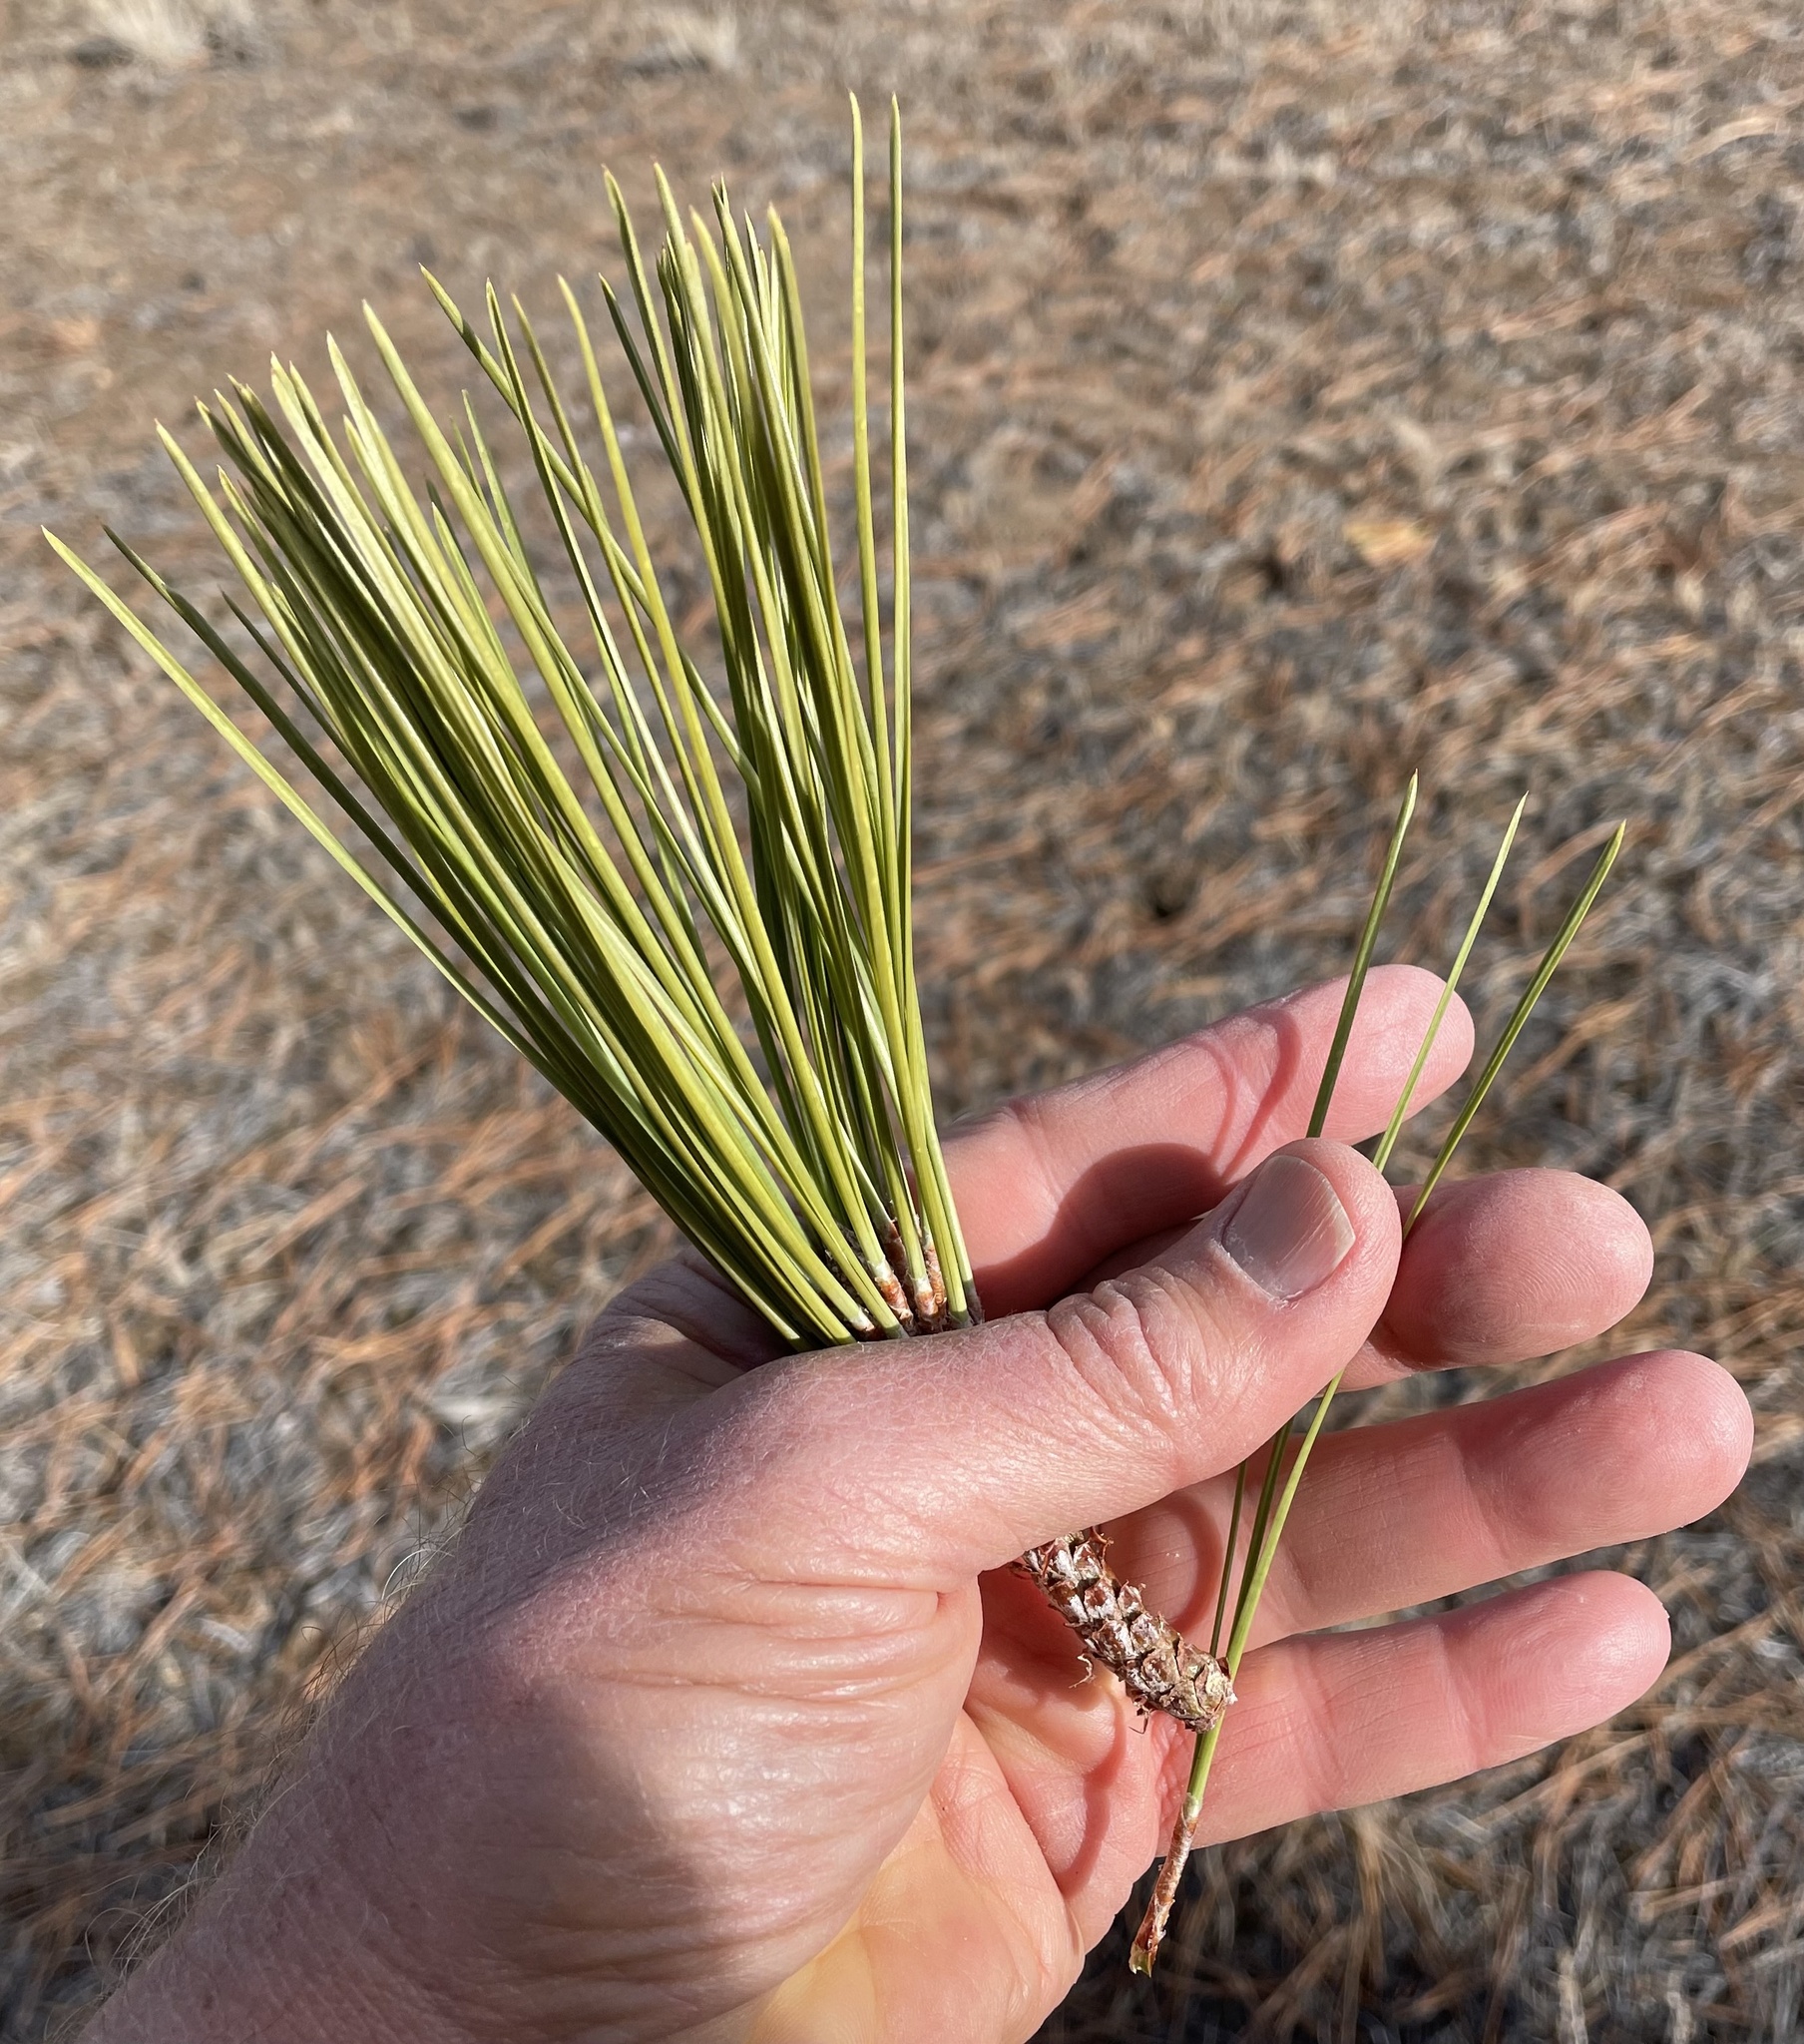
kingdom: Plantae
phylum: Tracheophyta
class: Pinopsida
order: Pinales
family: Pinaceae
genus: Pinus
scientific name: Pinus ponderosa
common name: Western yellow-pine
